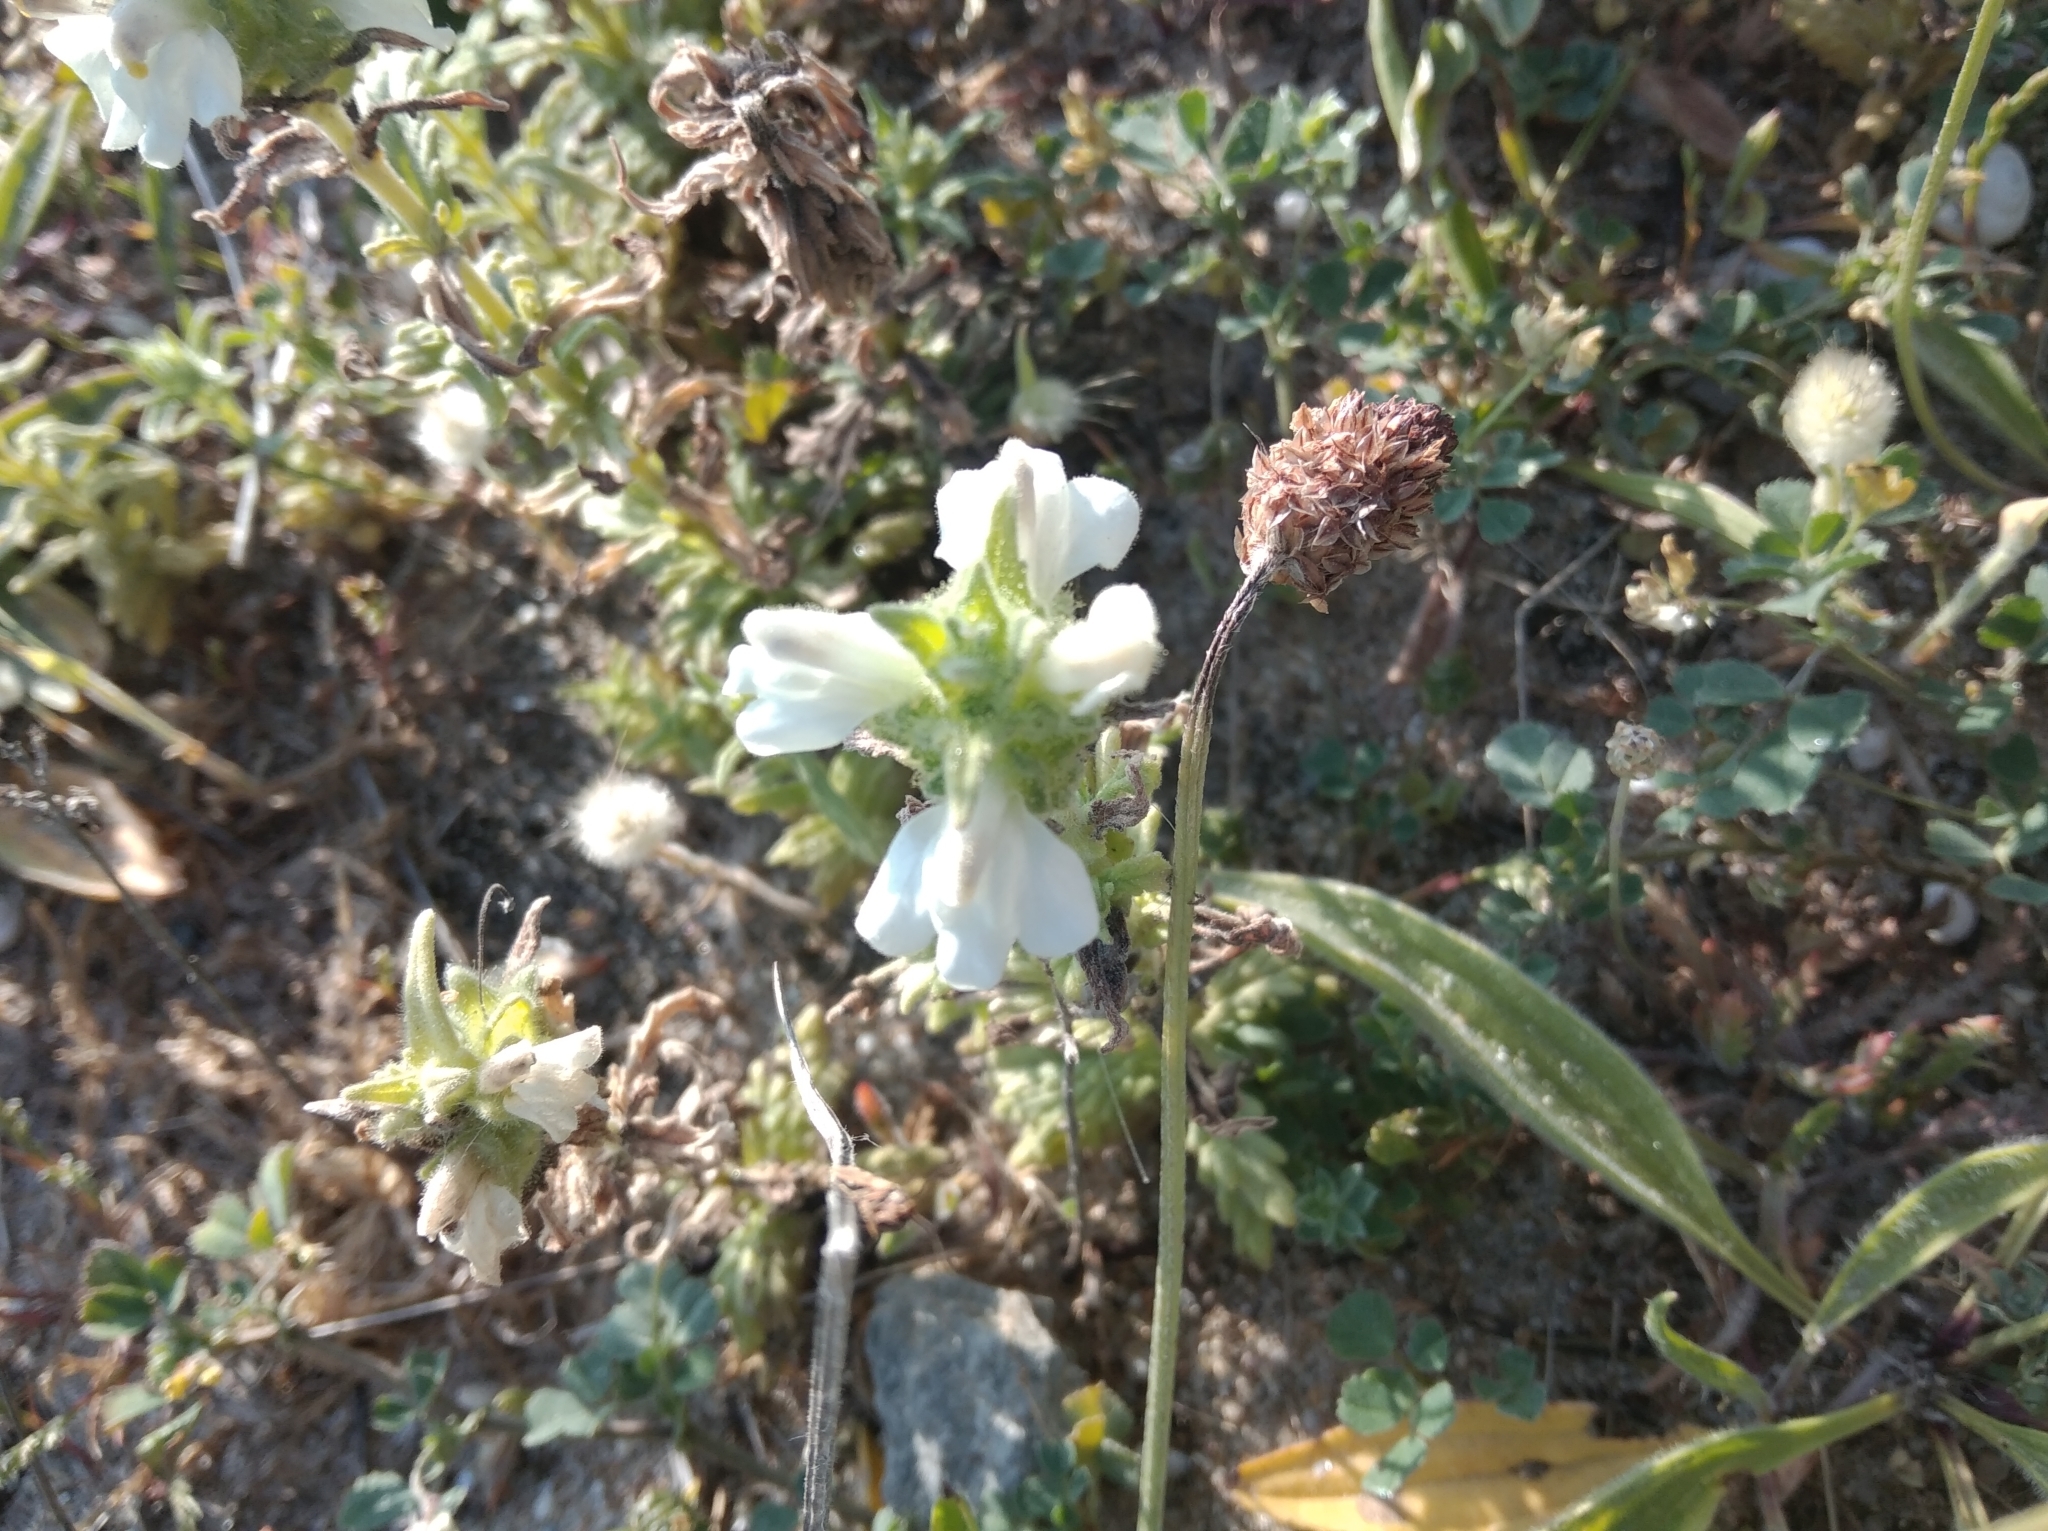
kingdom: Plantae
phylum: Tracheophyta
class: Magnoliopsida
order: Lamiales
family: Orobanchaceae
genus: Bellardia
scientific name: Bellardia trixago
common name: Mediterranean lineseed
